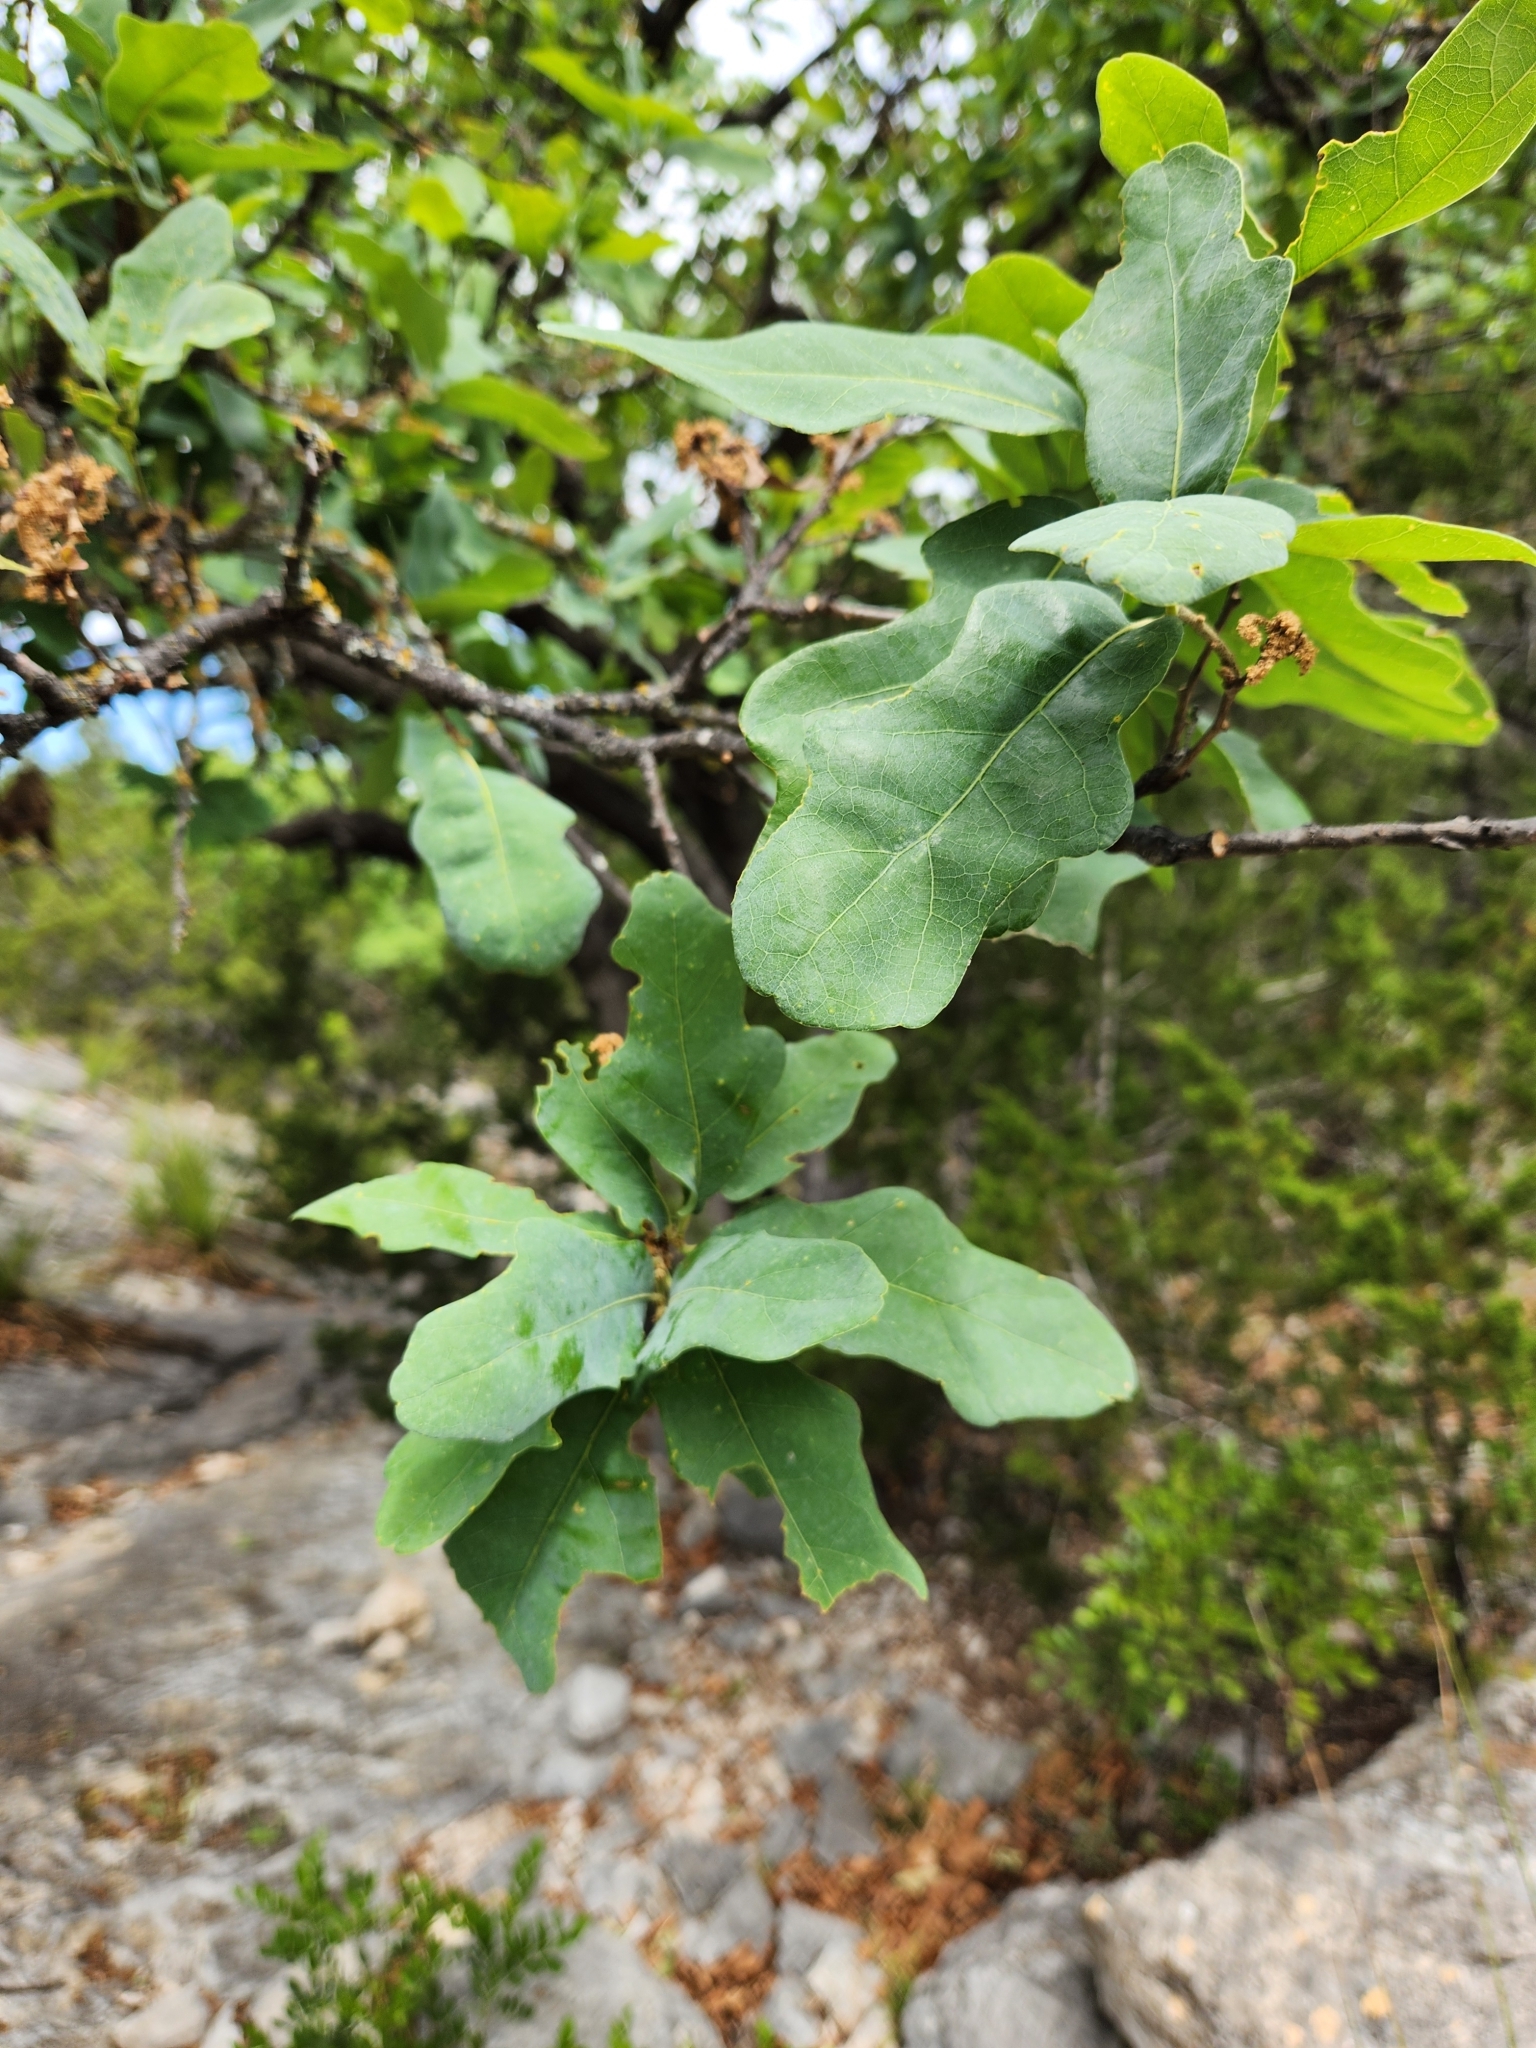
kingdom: Plantae
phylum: Tracheophyta
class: Magnoliopsida
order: Fagales
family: Fagaceae
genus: Quercus
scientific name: Quercus laceyi
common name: Lacey oak
